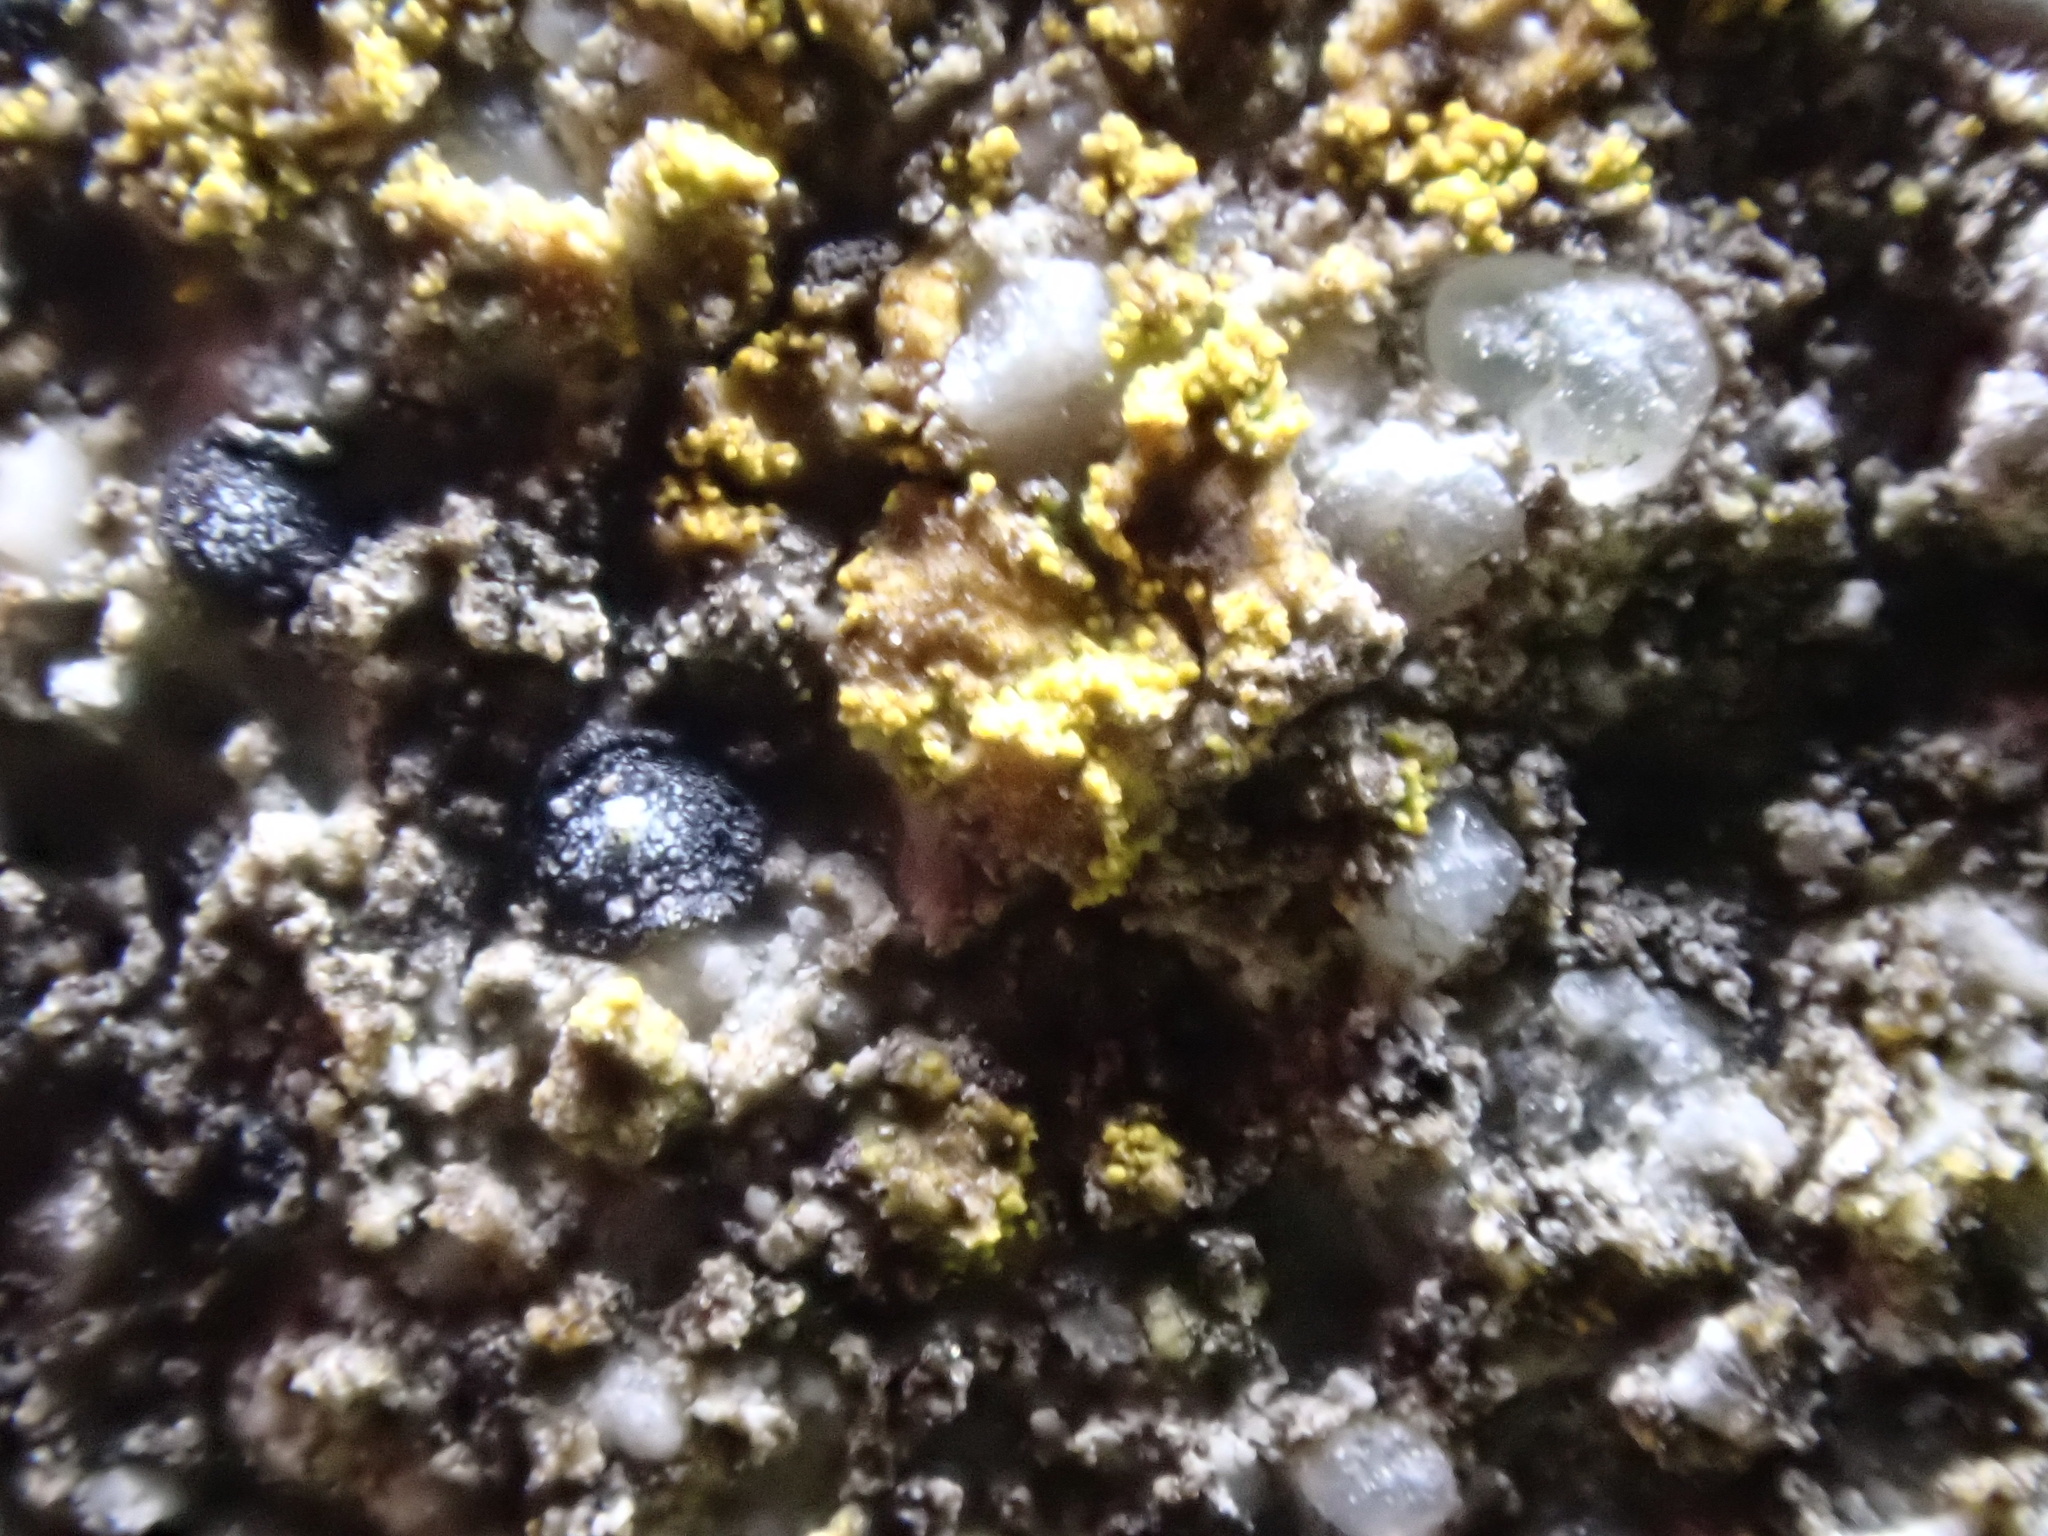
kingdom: Fungi
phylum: Ascomycota
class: Lecanoromycetes
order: Teloschistales
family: Teloschistaceae
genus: Flavoplaca
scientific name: Flavoplaca flavocitrina
